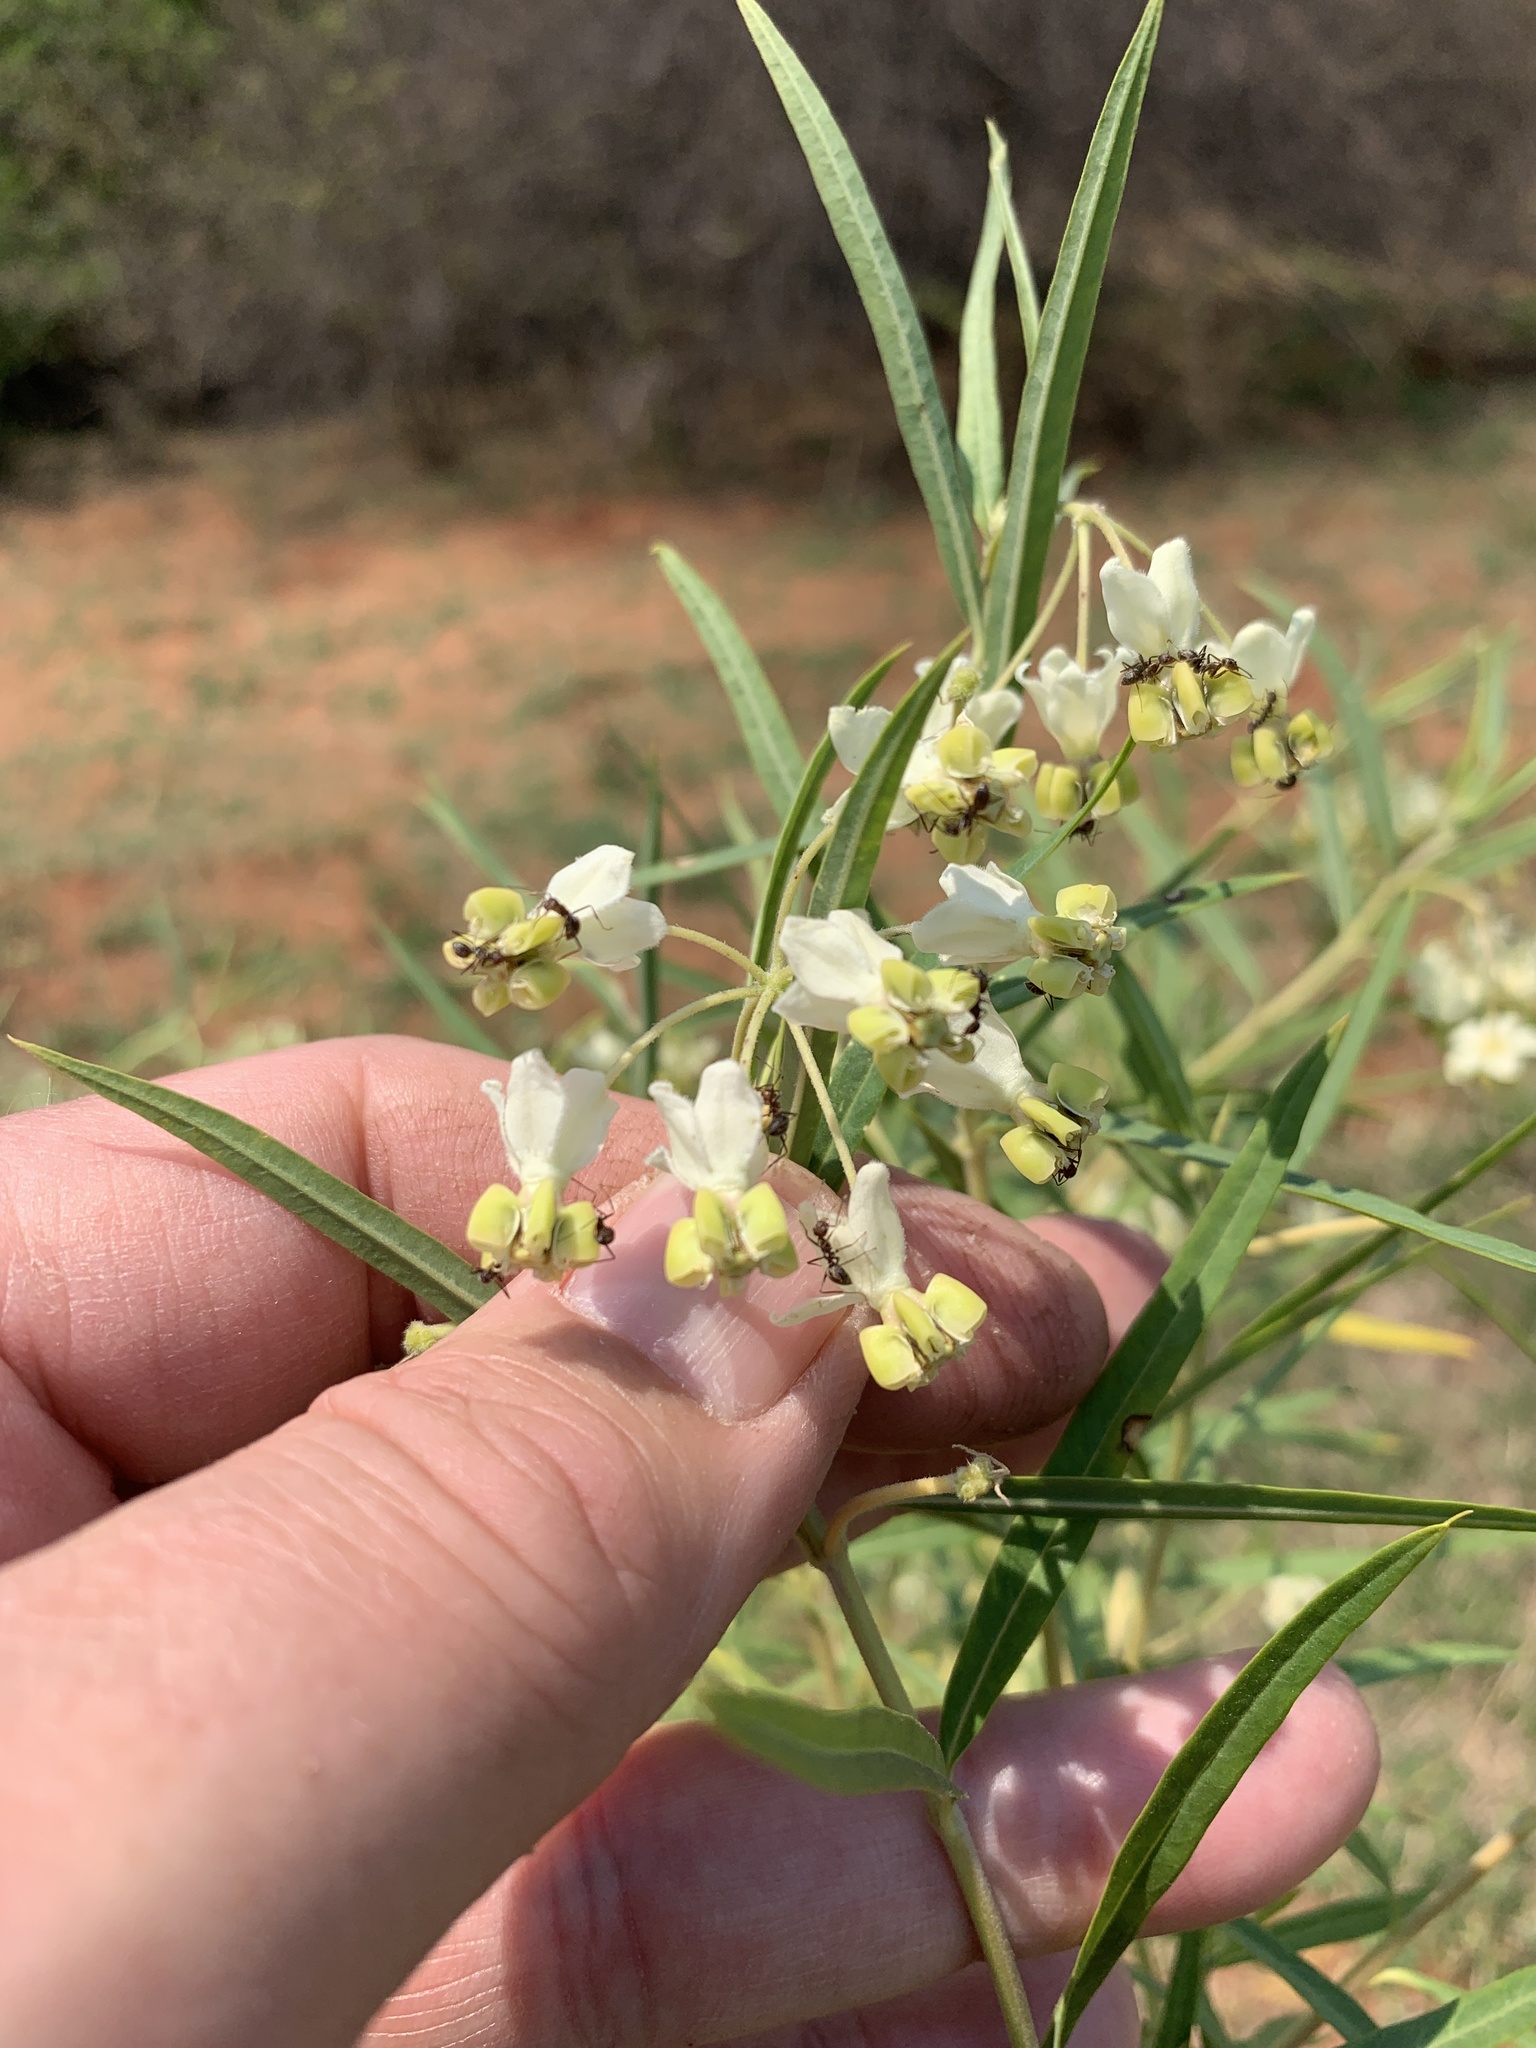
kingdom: Plantae
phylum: Tracheophyta
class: Magnoliopsida
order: Gentianales
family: Apocynaceae
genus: Gomphocarpus
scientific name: Gomphocarpus fruticosus
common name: Milkweed
